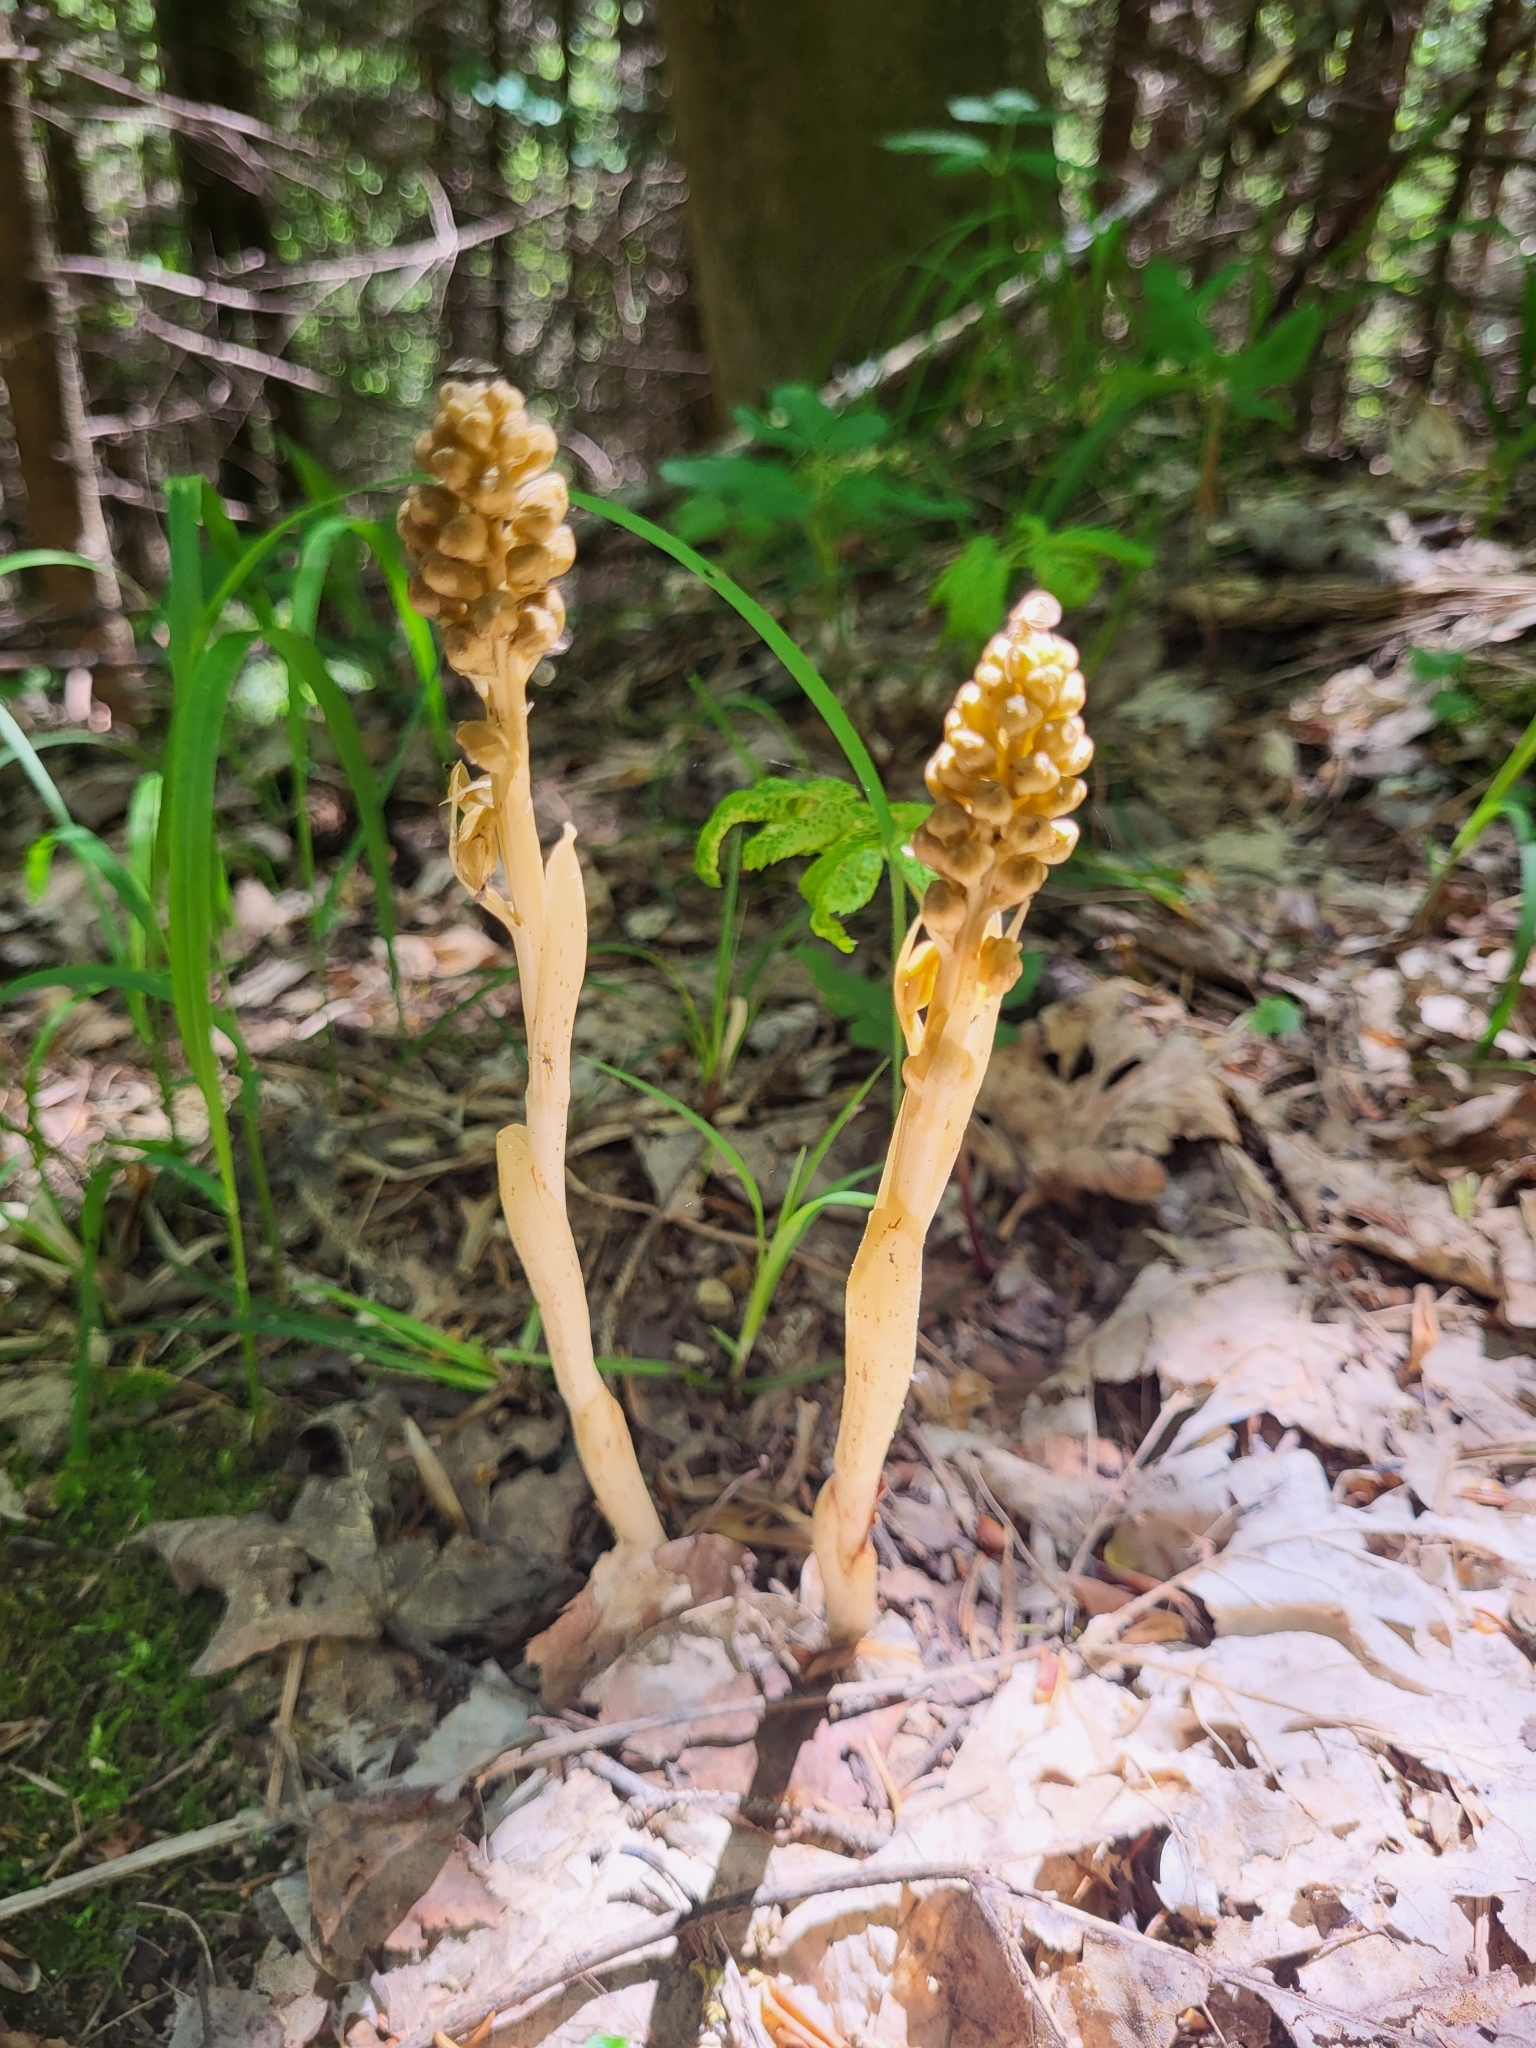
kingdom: Plantae
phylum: Tracheophyta
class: Liliopsida
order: Asparagales
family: Orchidaceae
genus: Neottia
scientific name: Neottia nidus-avis
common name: Bird's-nest orchid
